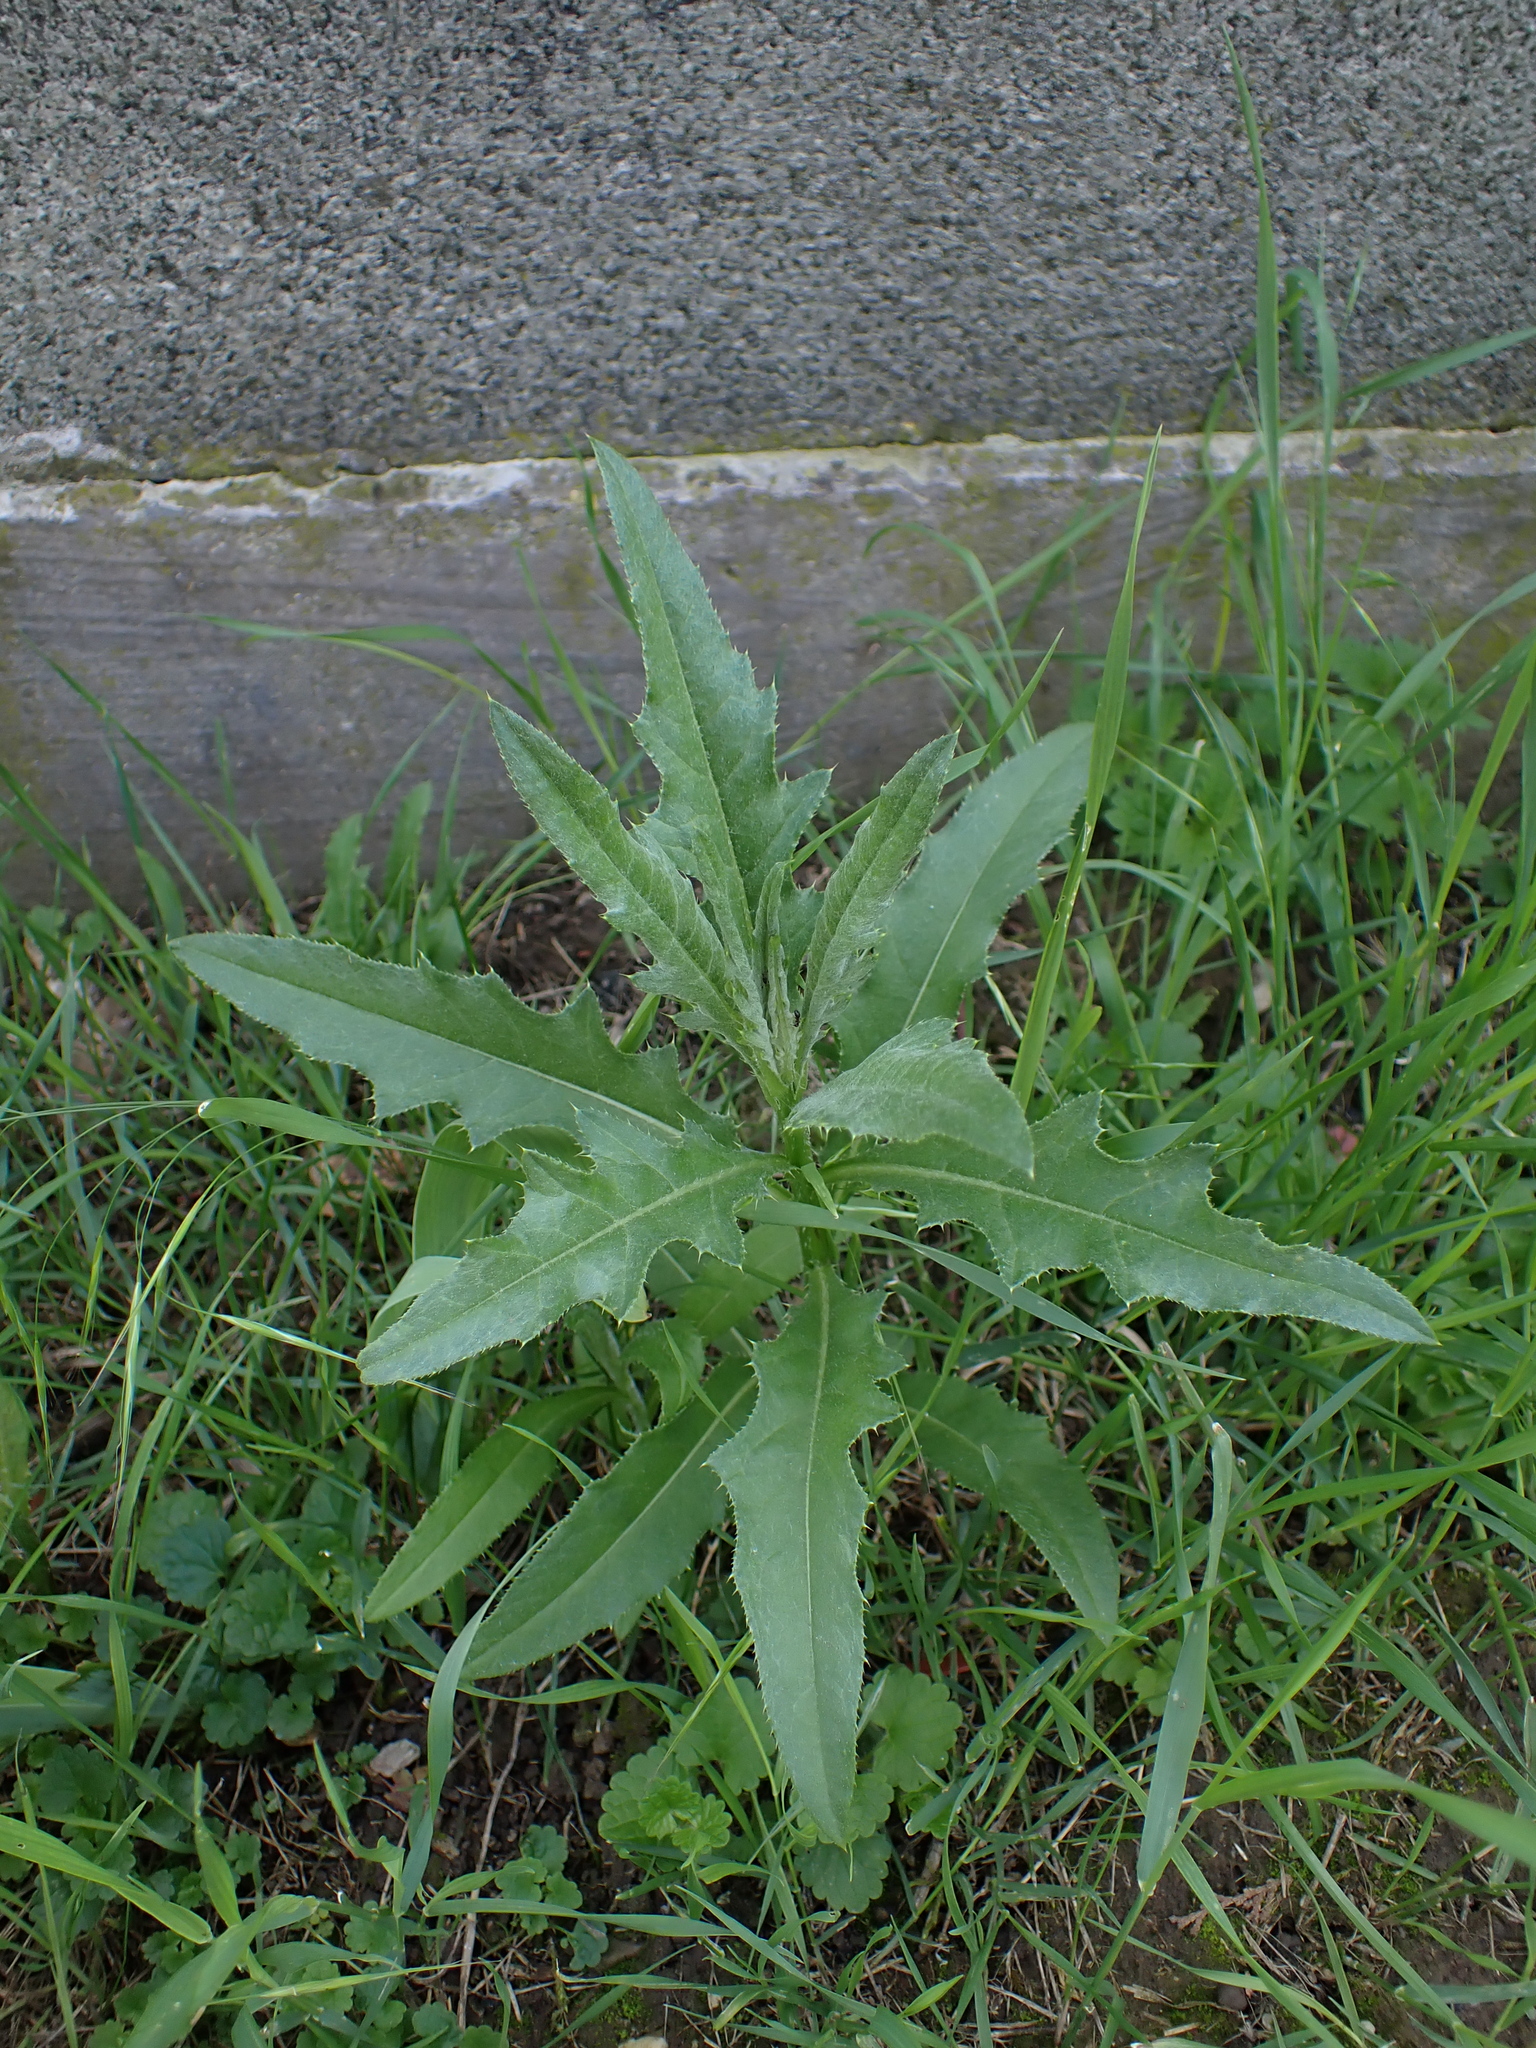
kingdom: Plantae
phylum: Tracheophyta
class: Magnoliopsida
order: Asterales
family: Asteraceae
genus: Cirsium
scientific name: Cirsium arvense
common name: Creeping thistle
